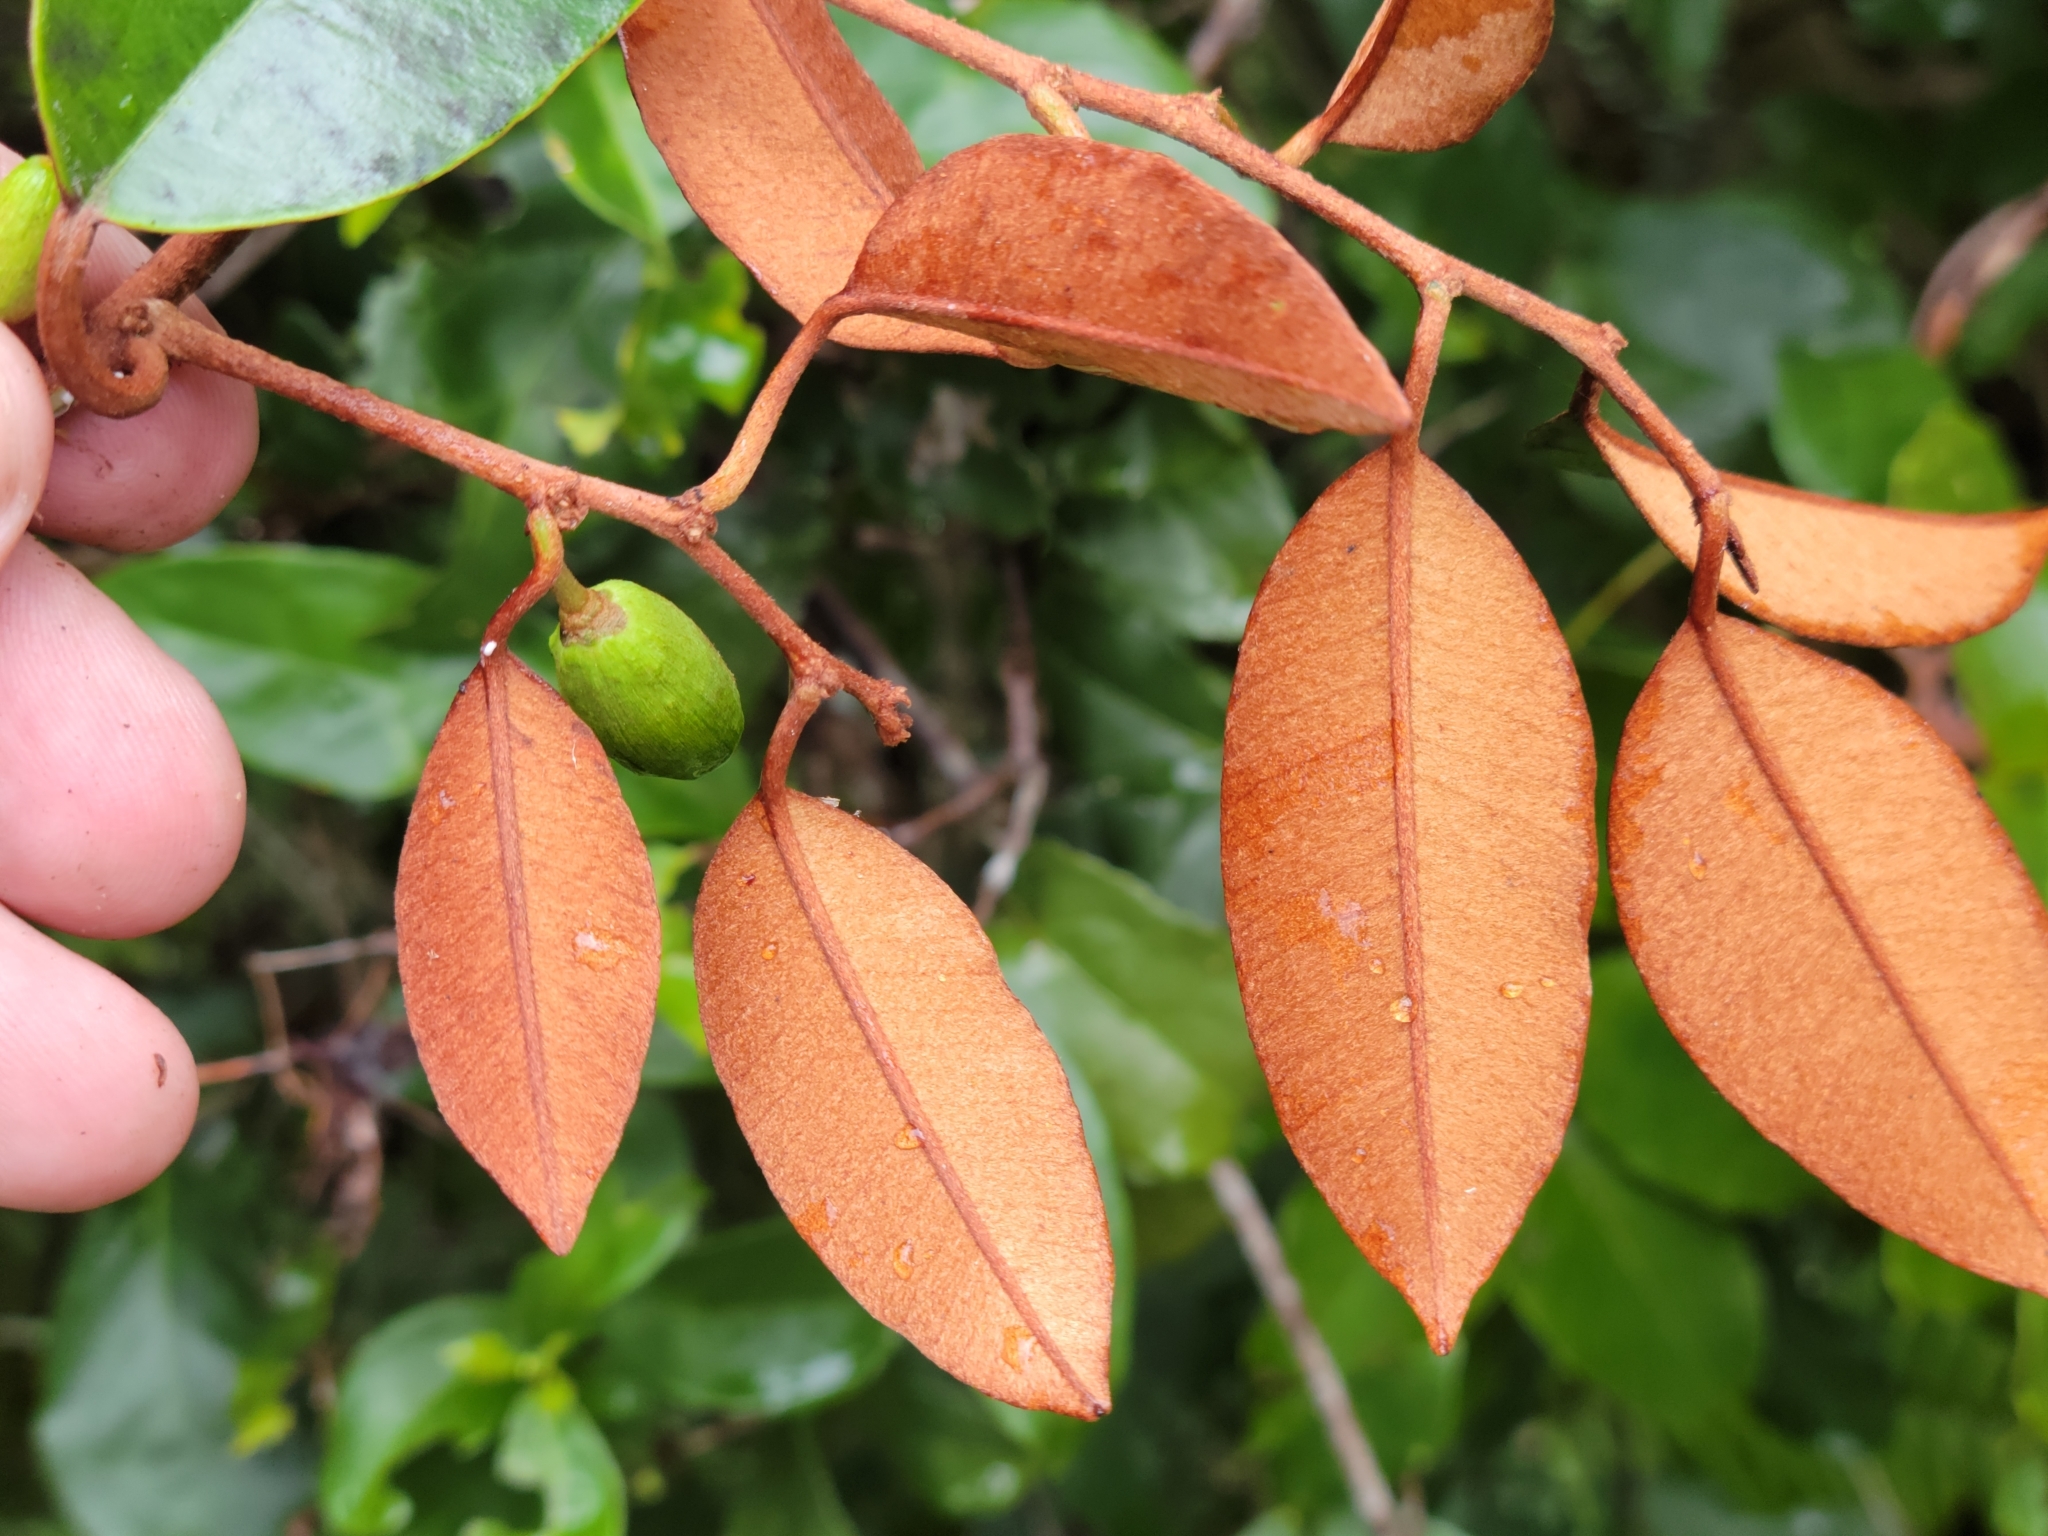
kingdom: Plantae
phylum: Tracheophyta
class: Magnoliopsida
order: Ericales
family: Sapotaceae
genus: Chrysophyllum
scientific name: Chrysophyllum oliviforme
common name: Satinleaf
